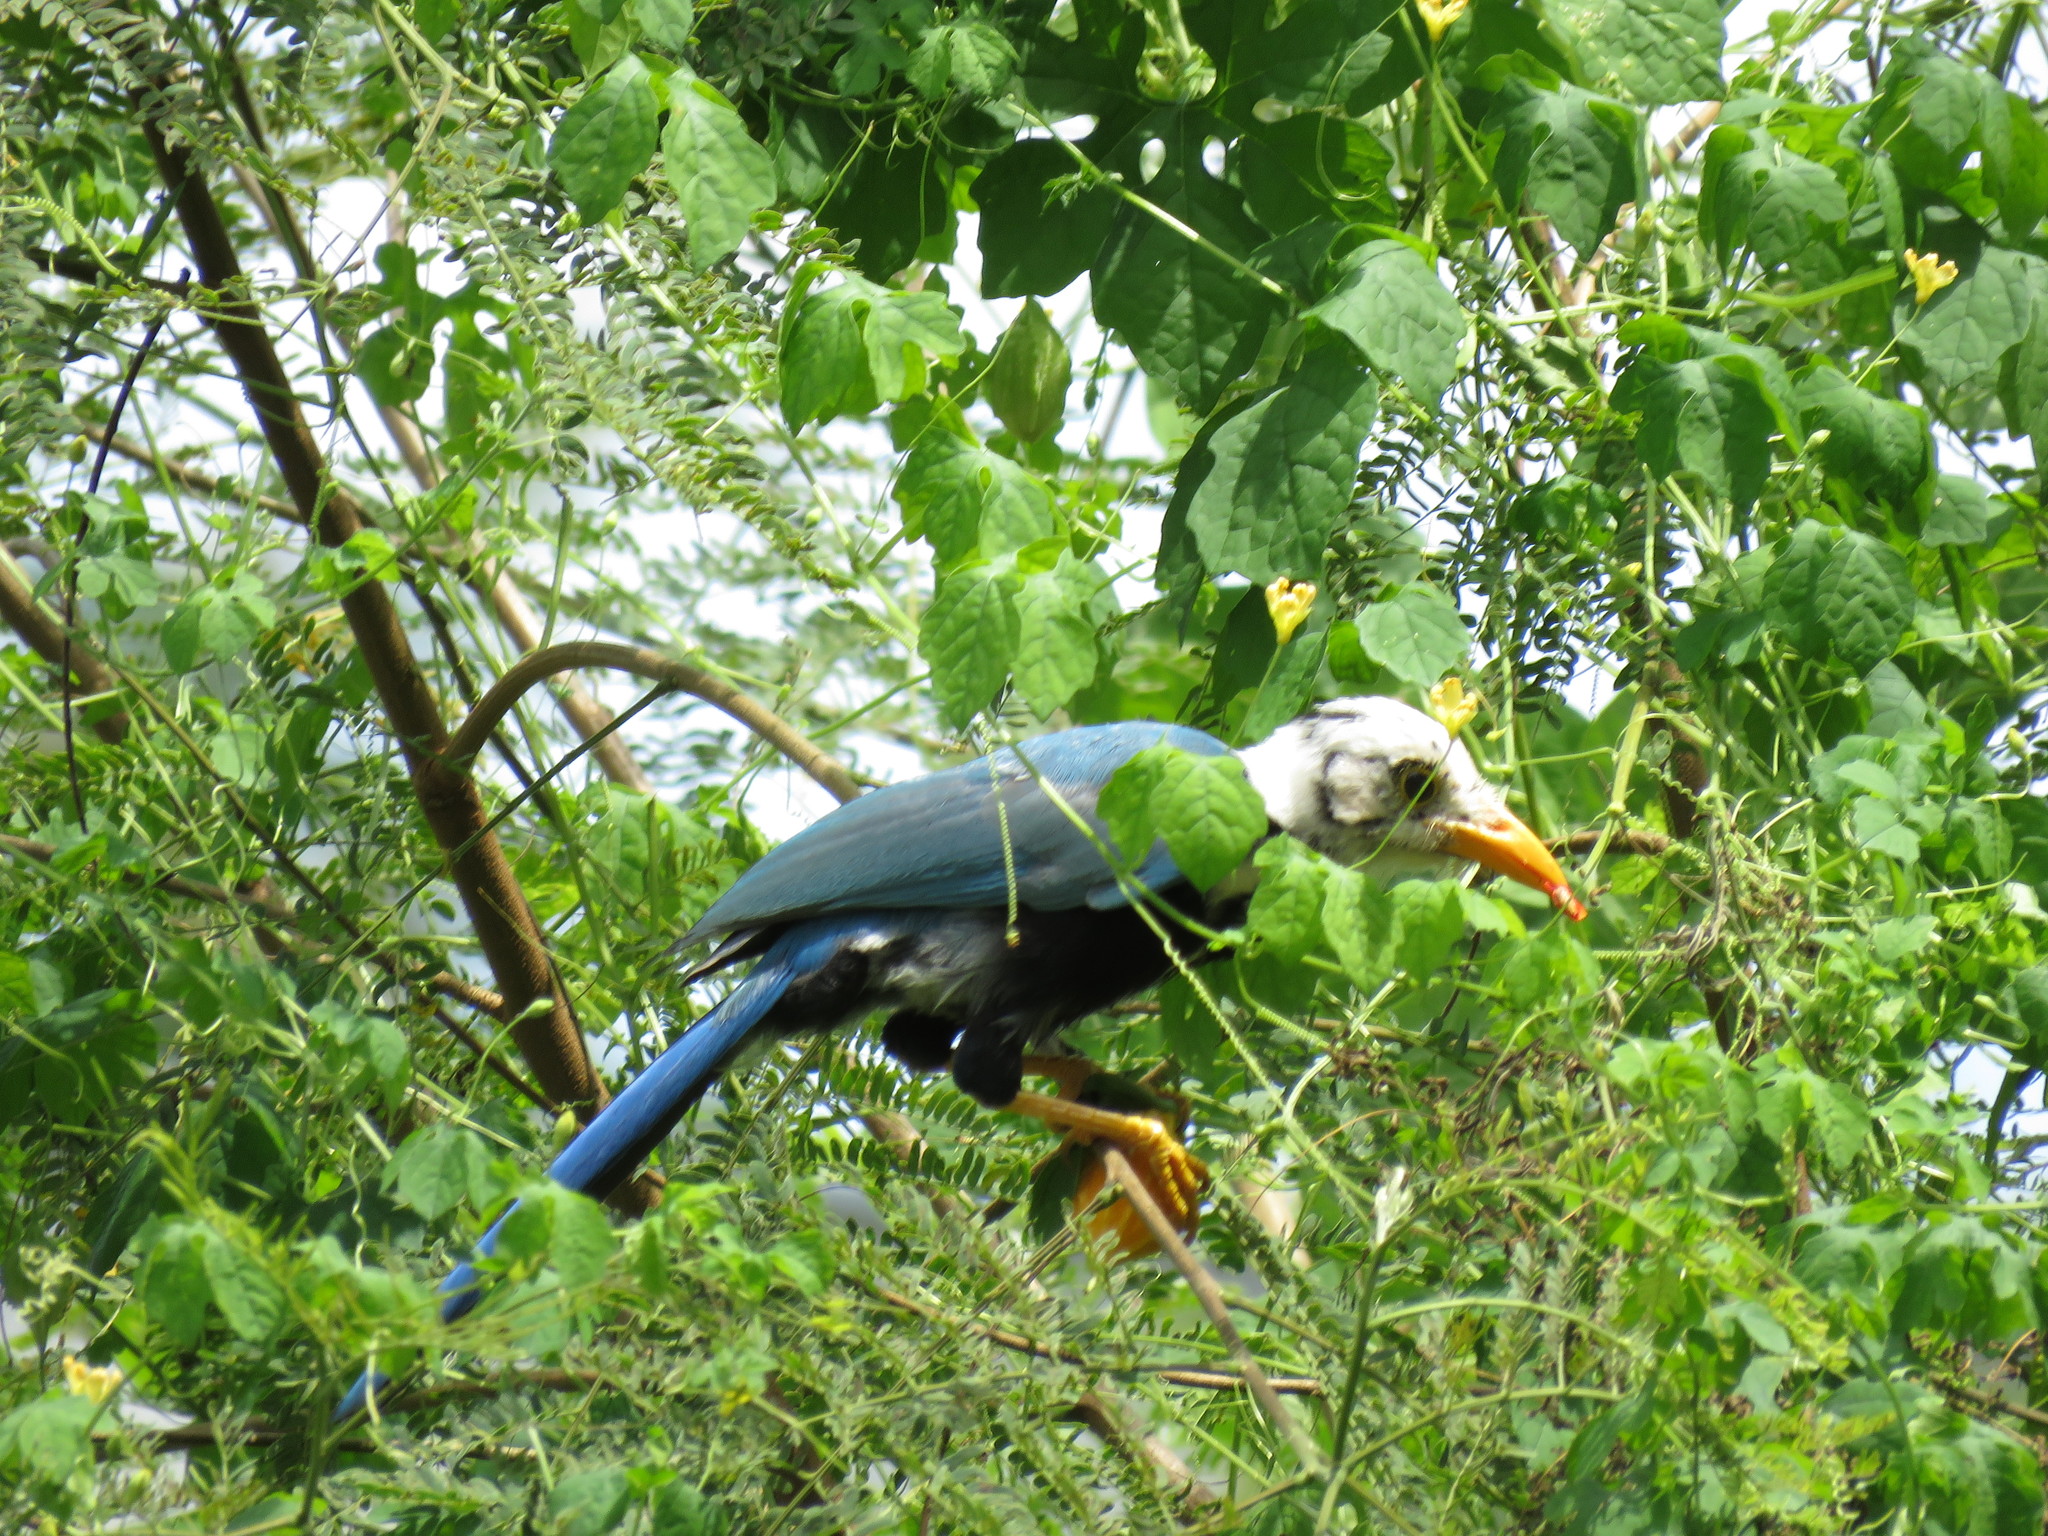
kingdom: Animalia
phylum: Chordata
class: Aves
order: Passeriformes
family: Corvidae
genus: Cyanocorax
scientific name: Cyanocorax yucatanicus
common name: Yucatan jay
